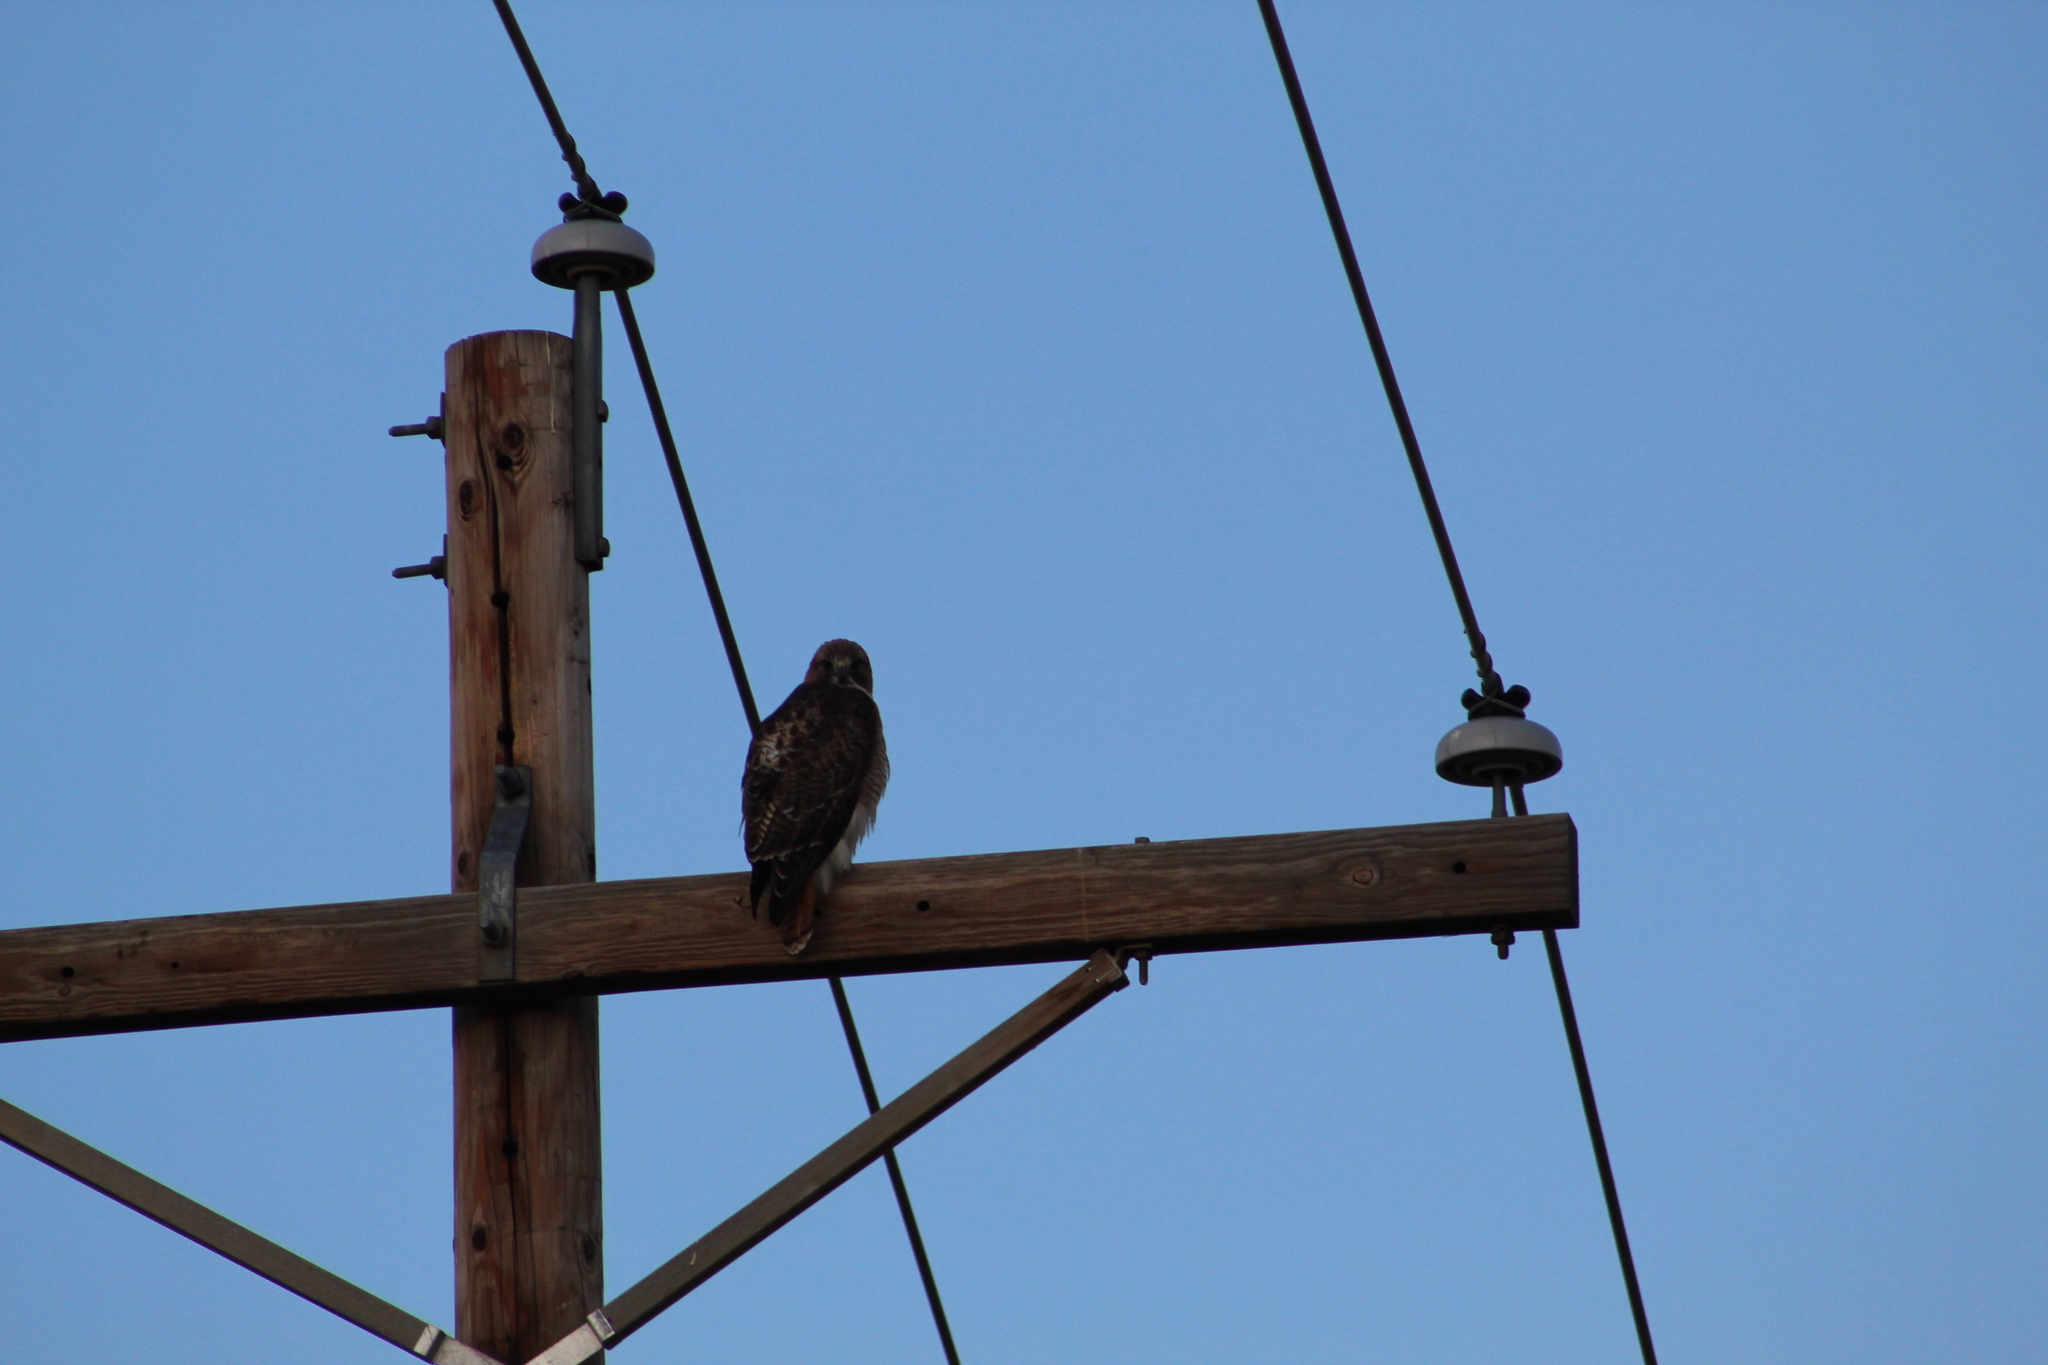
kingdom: Animalia
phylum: Chordata
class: Aves
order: Accipitriformes
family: Accipitridae
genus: Buteo
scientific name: Buteo jamaicensis
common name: Red-tailed hawk
